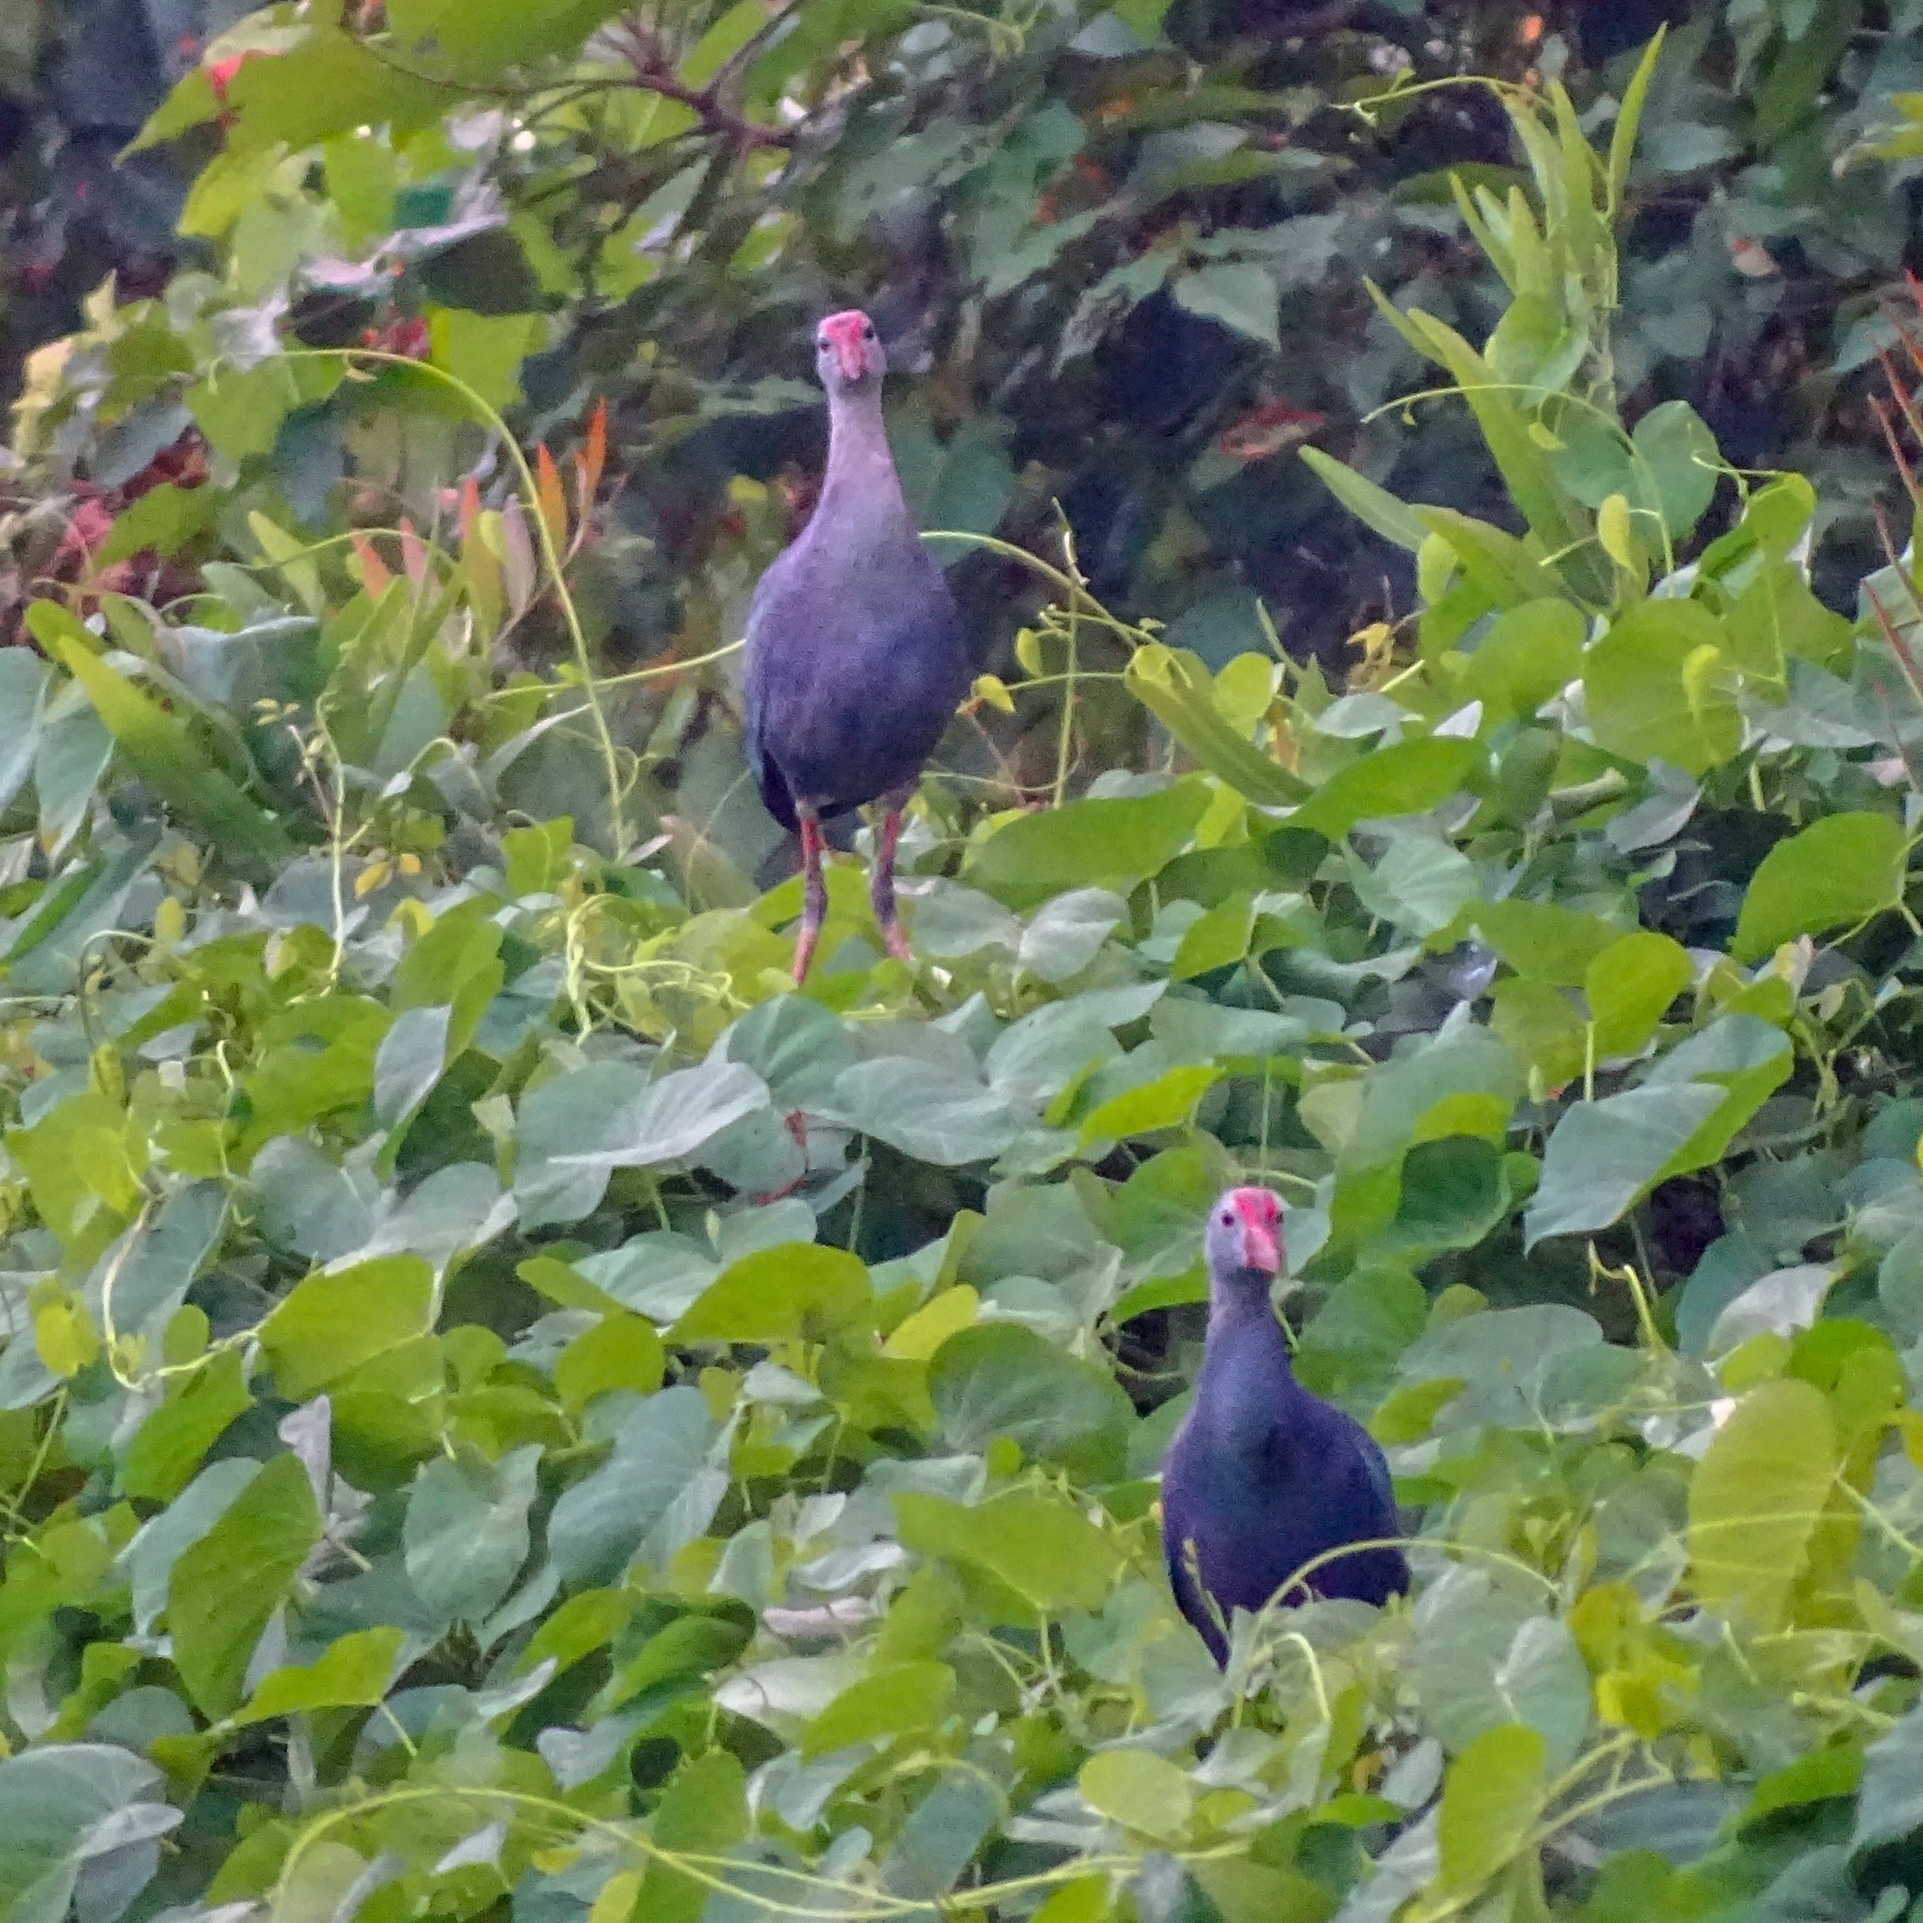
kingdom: Animalia
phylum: Chordata
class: Aves
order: Gruiformes
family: Rallidae
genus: Porphyrio
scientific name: Porphyrio porphyrio
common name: Purple swamphen
